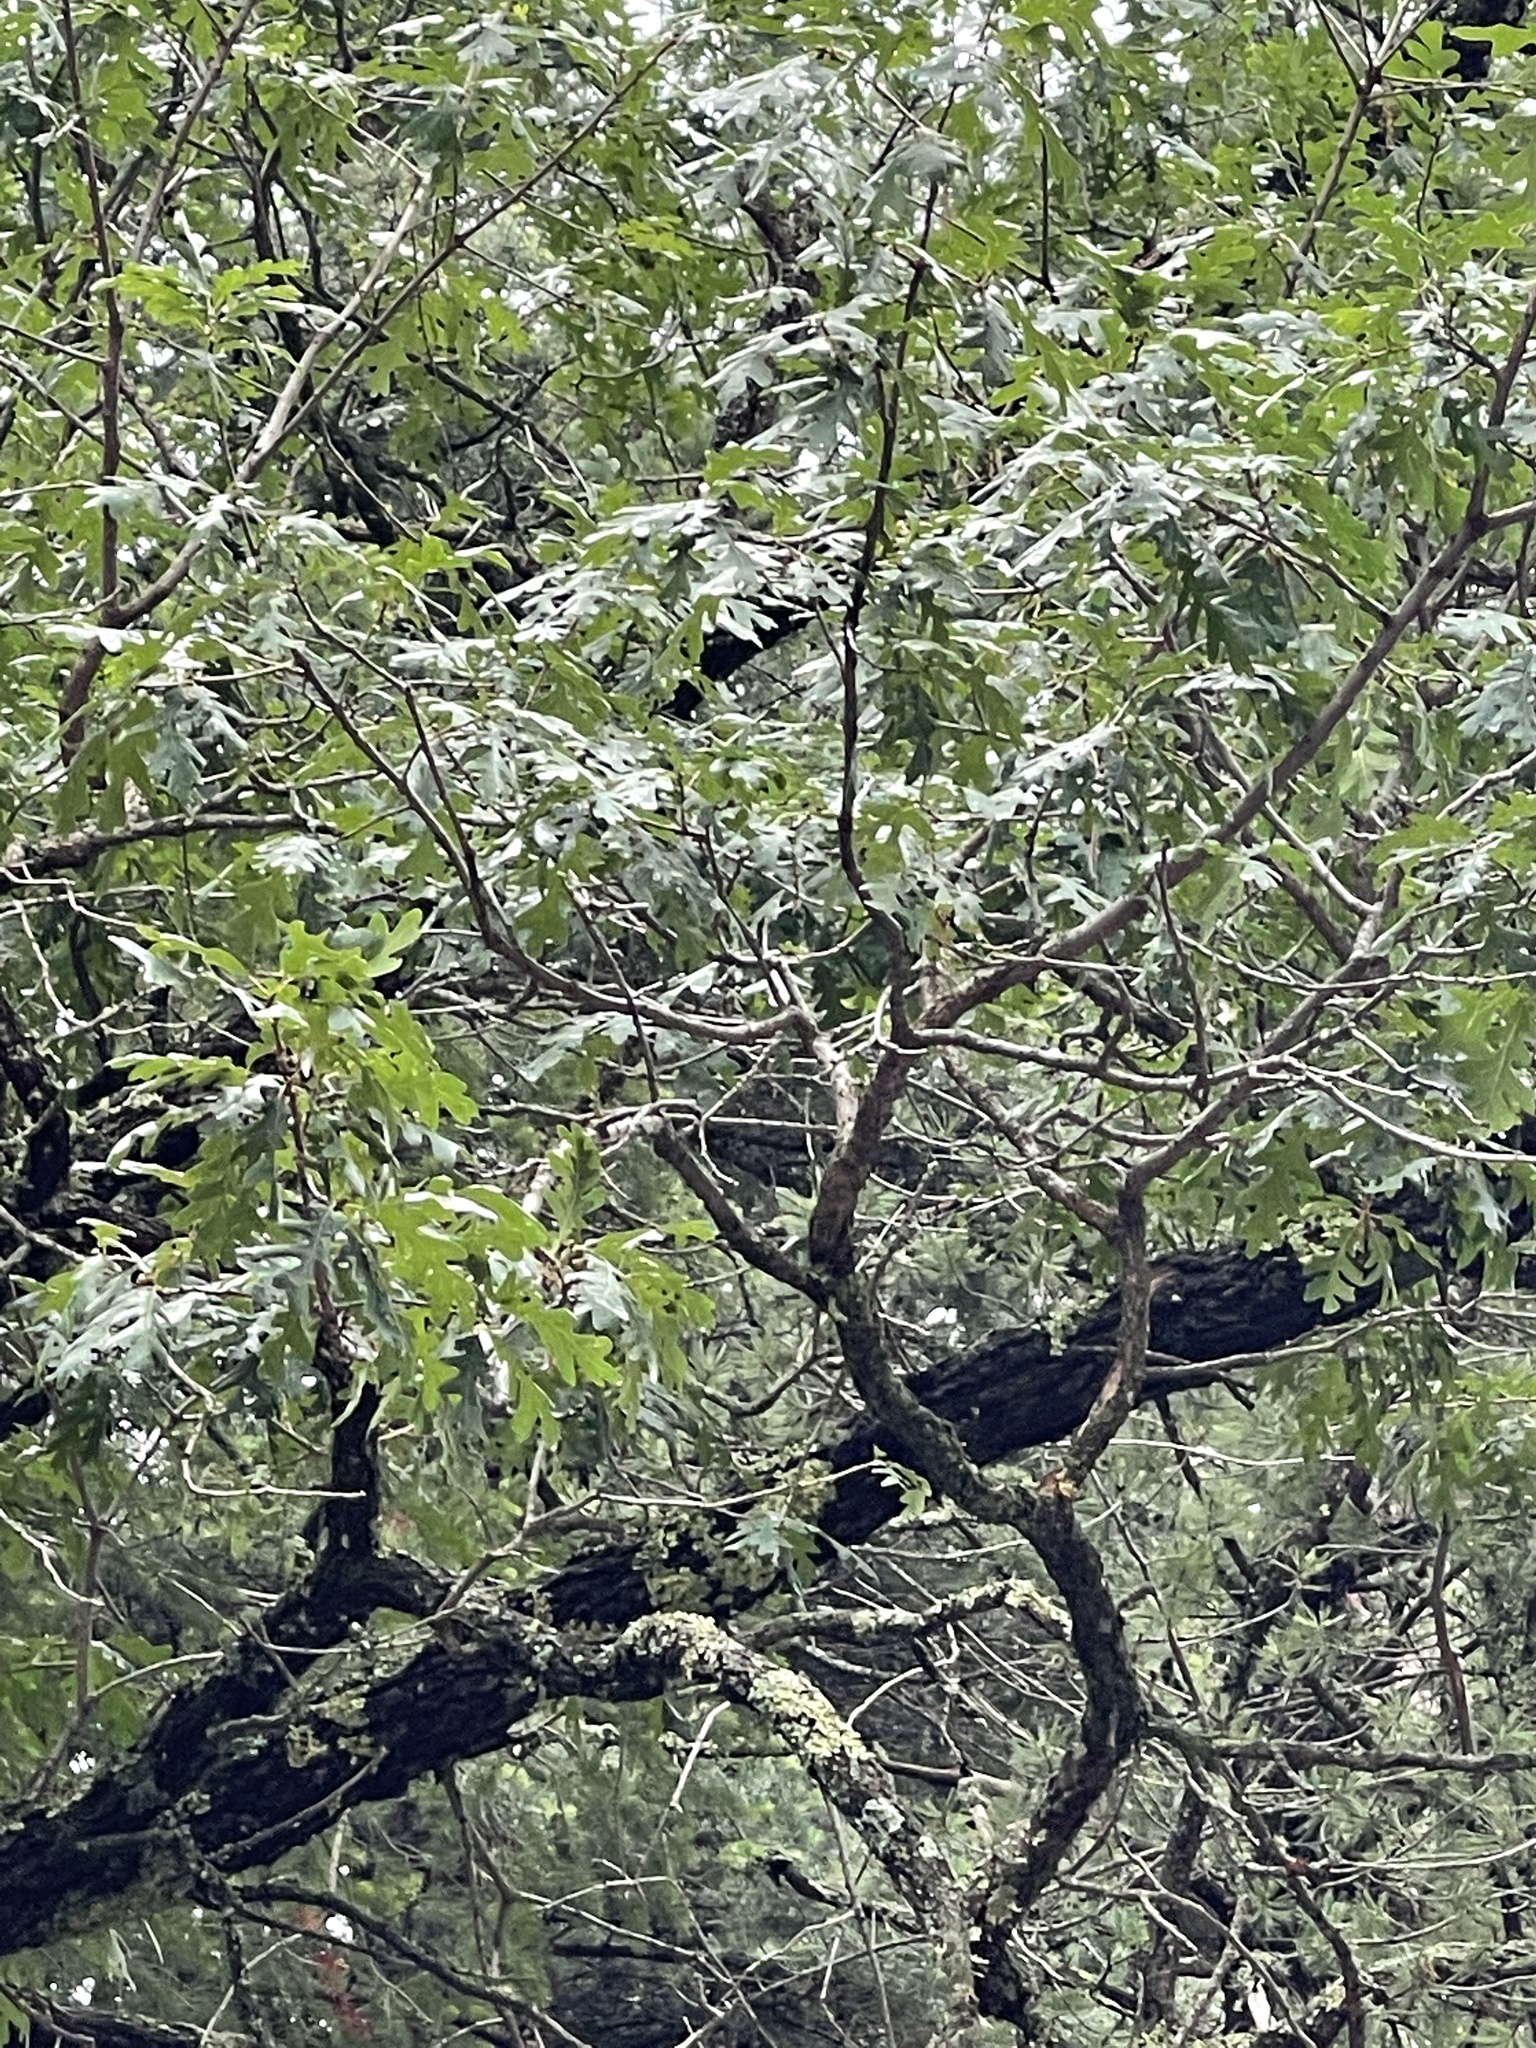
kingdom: Plantae
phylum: Tracheophyta
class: Magnoliopsida
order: Fagales
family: Fagaceae
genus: Quercus
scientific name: Quercus gambelii
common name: Gambel oak
